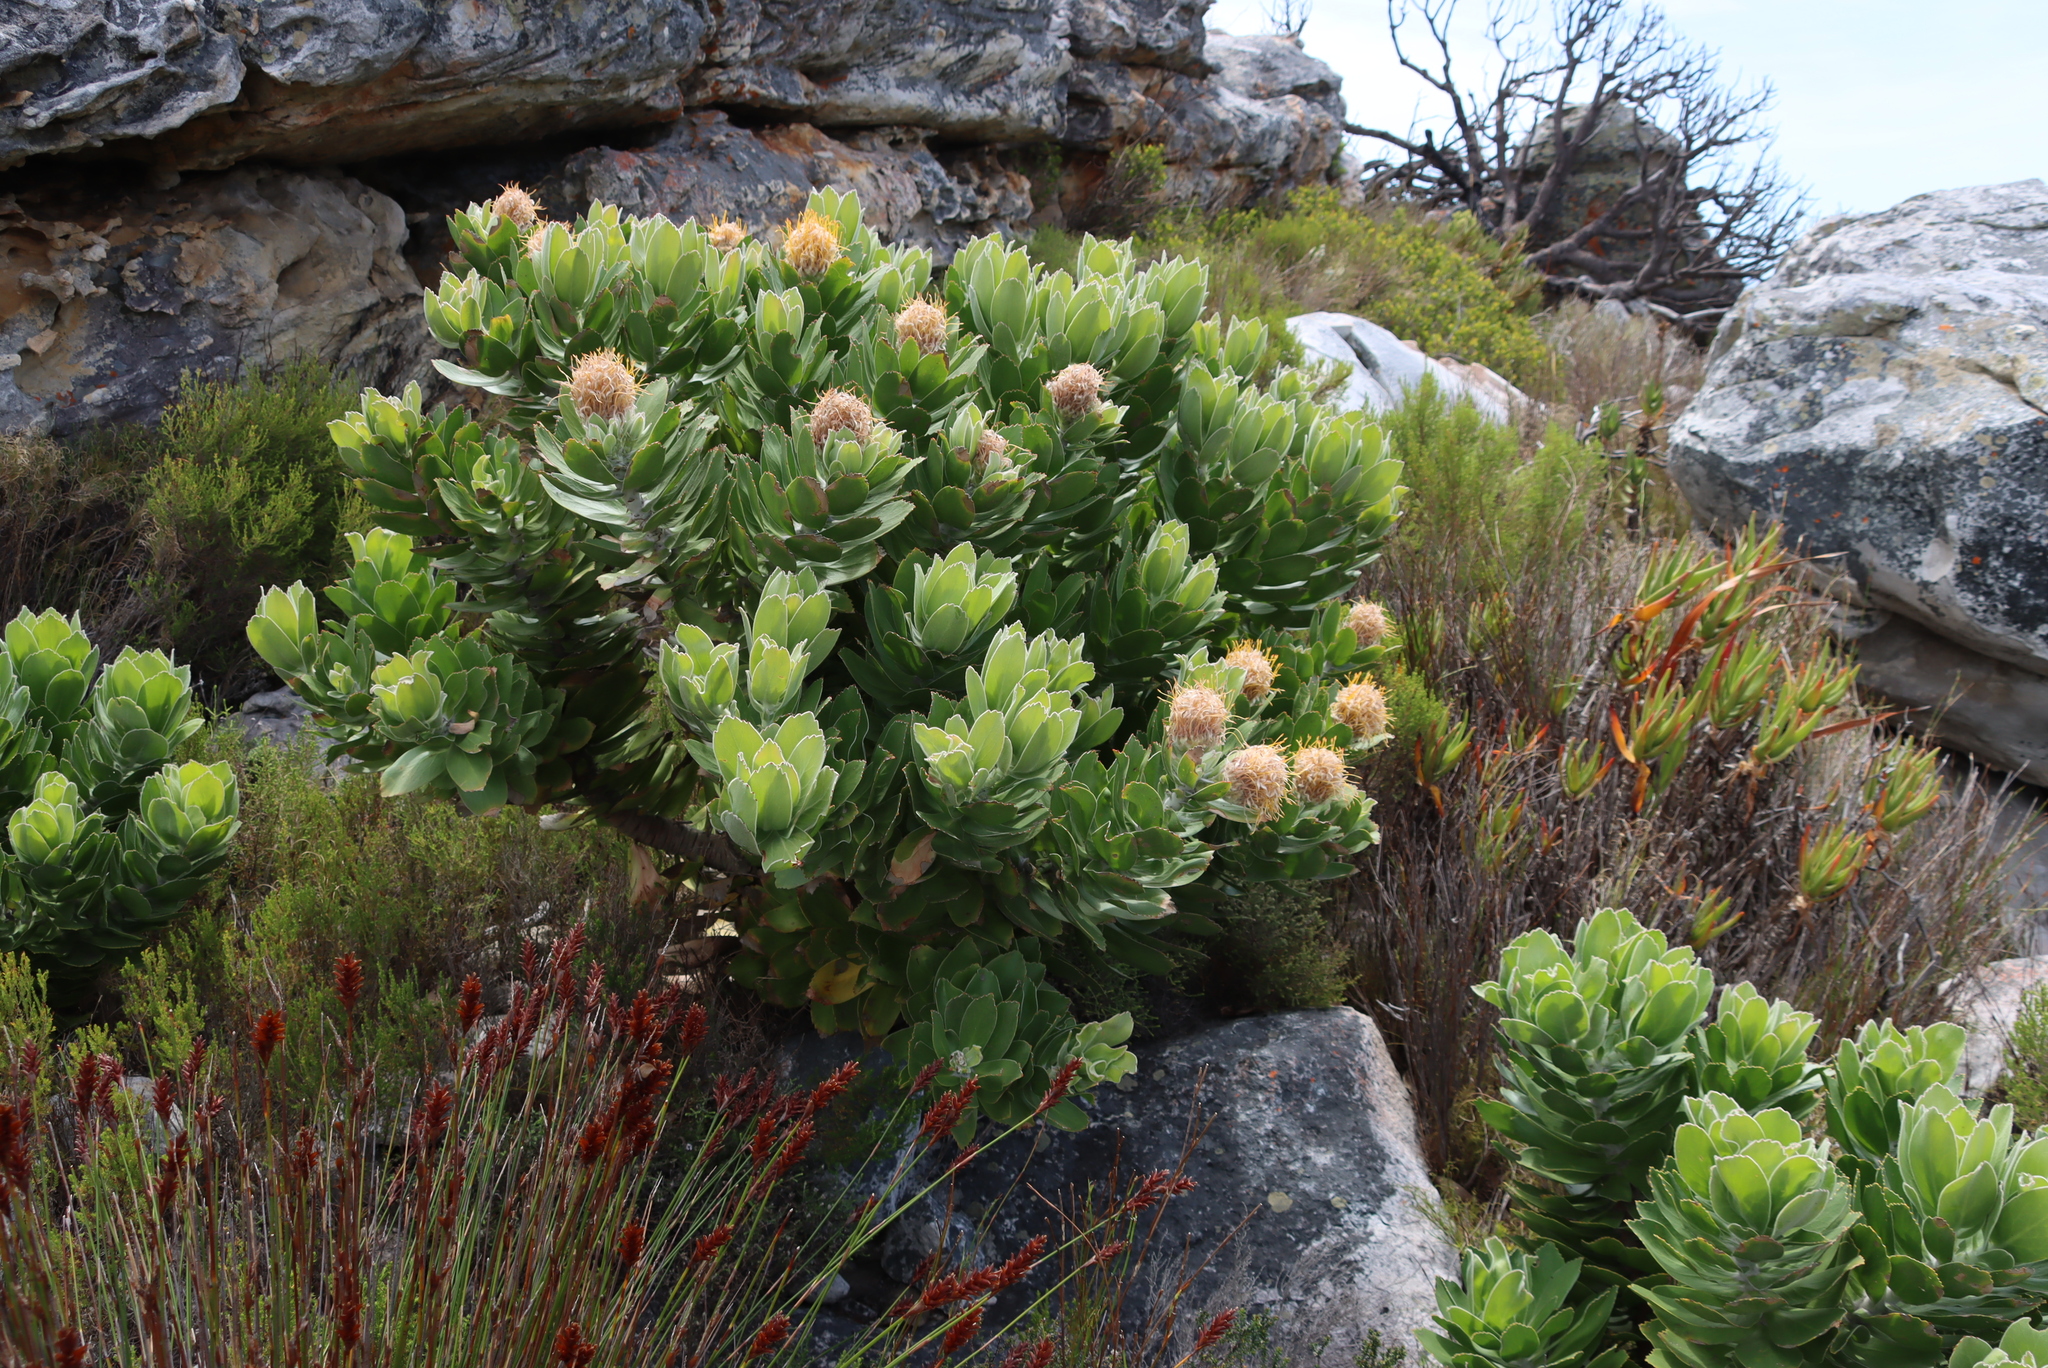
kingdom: Plantae
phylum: Tracheophyta
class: Magnoliopsida
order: Proteales
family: Proteaceae
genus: Leucospermum
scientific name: Leucospermum conocarpodendron
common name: Tree pincushion
